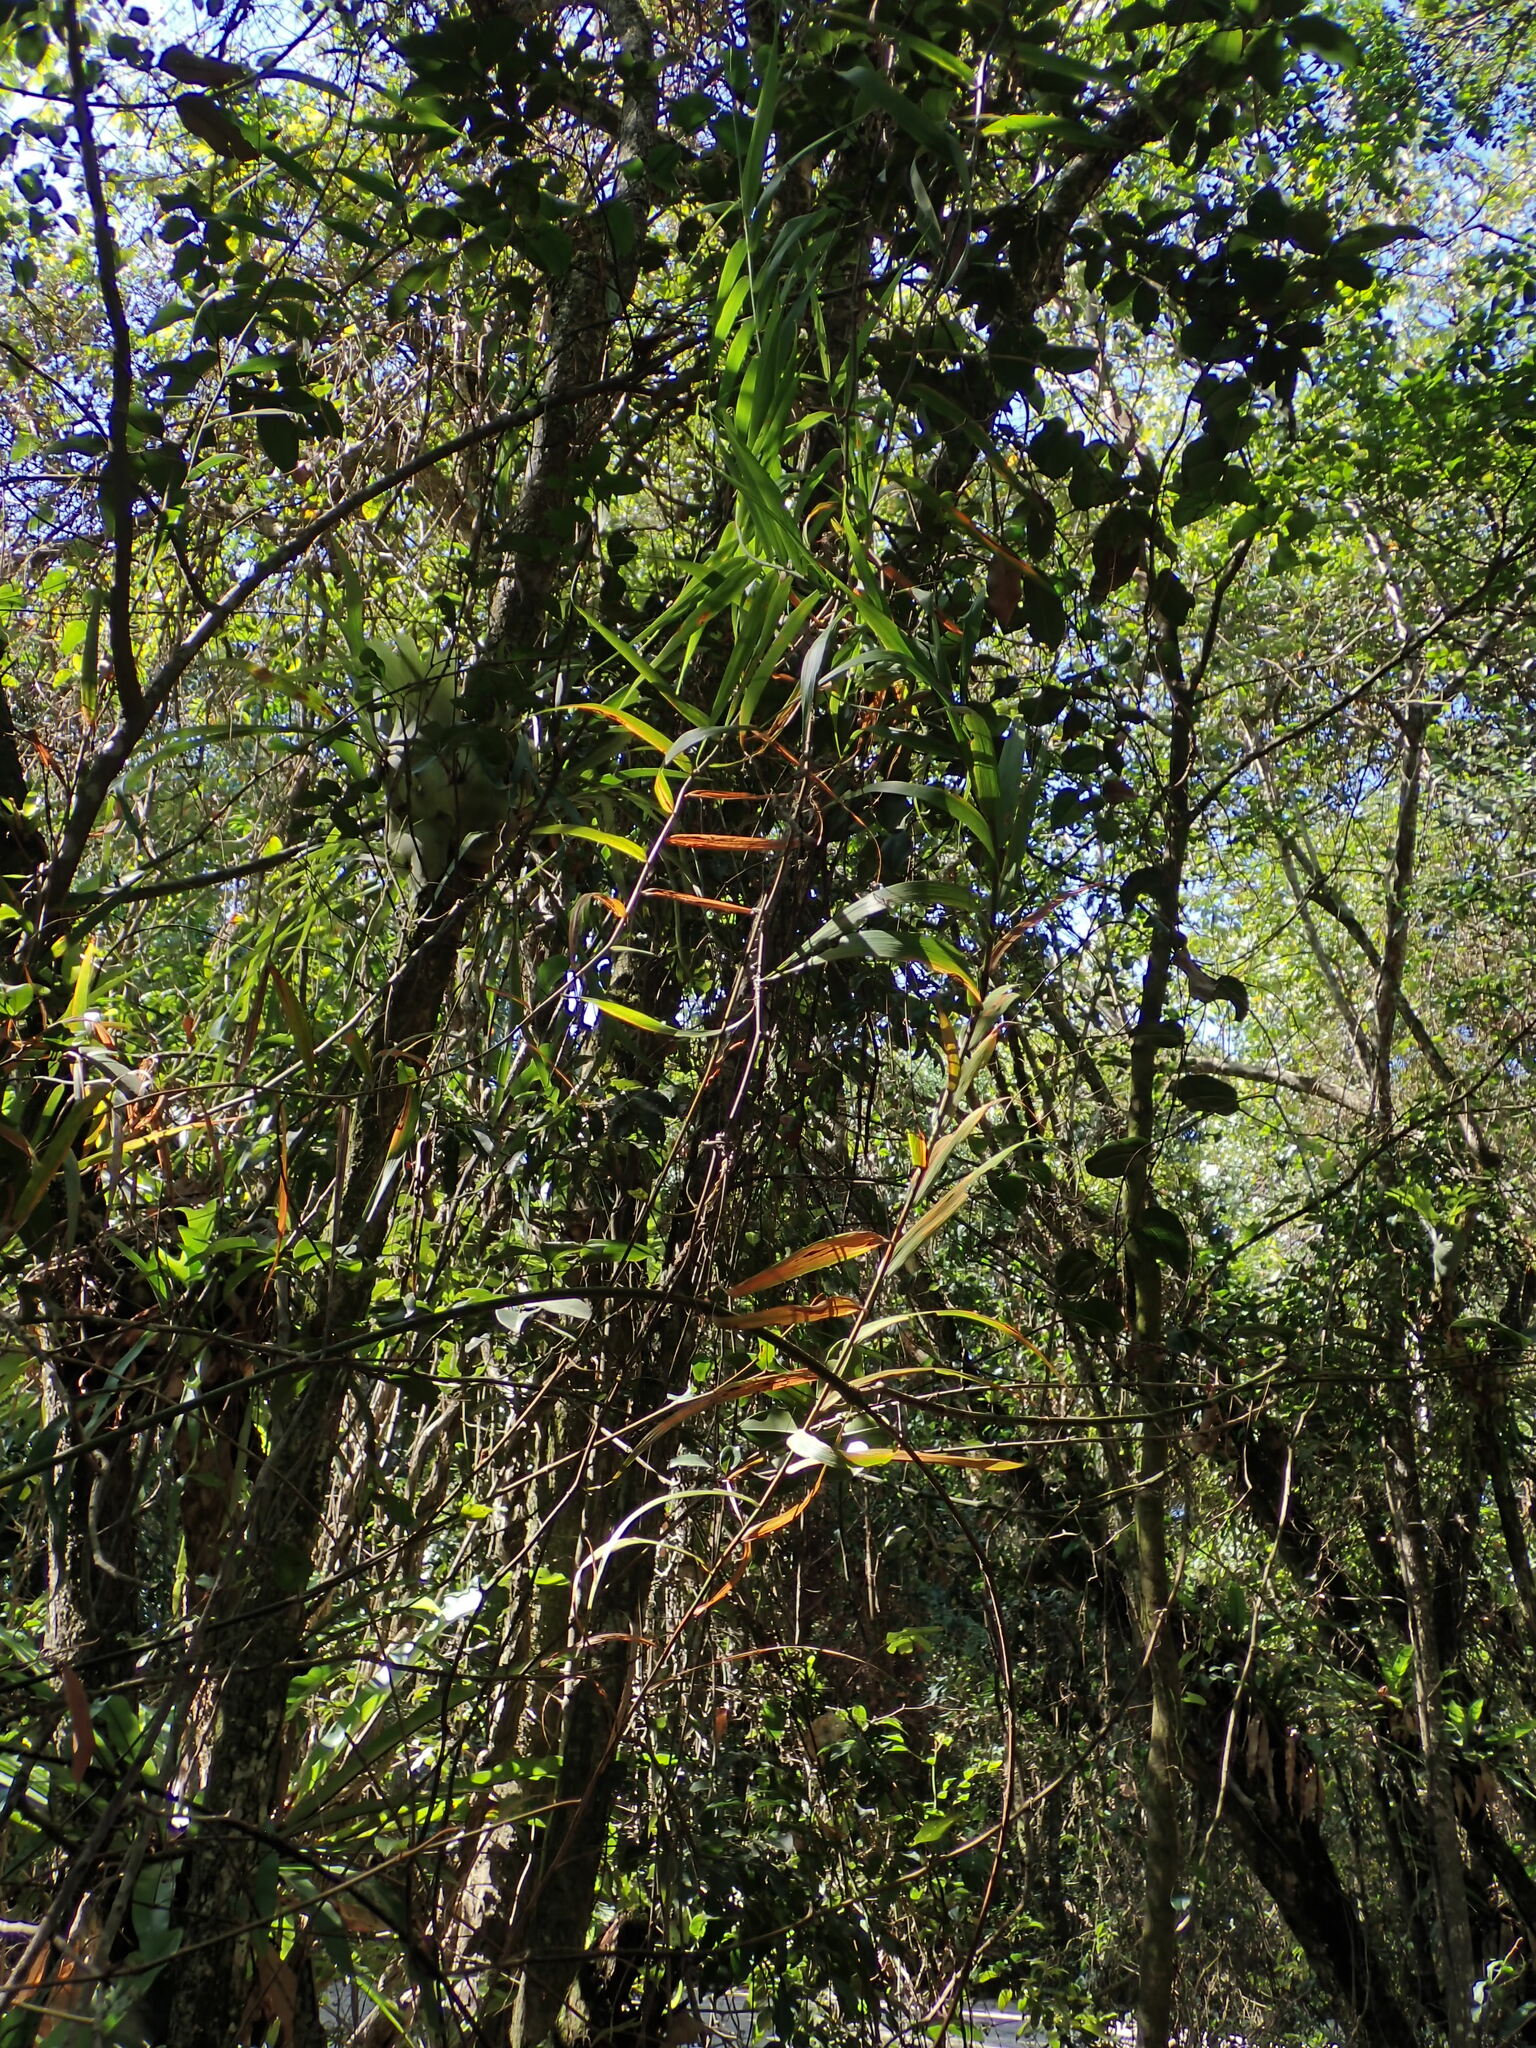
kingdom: Plantae
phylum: Tracheophyta
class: Liliopsida
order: Poales
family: Flagellariaceae
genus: Flagellaria
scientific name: Flagellaria indica
